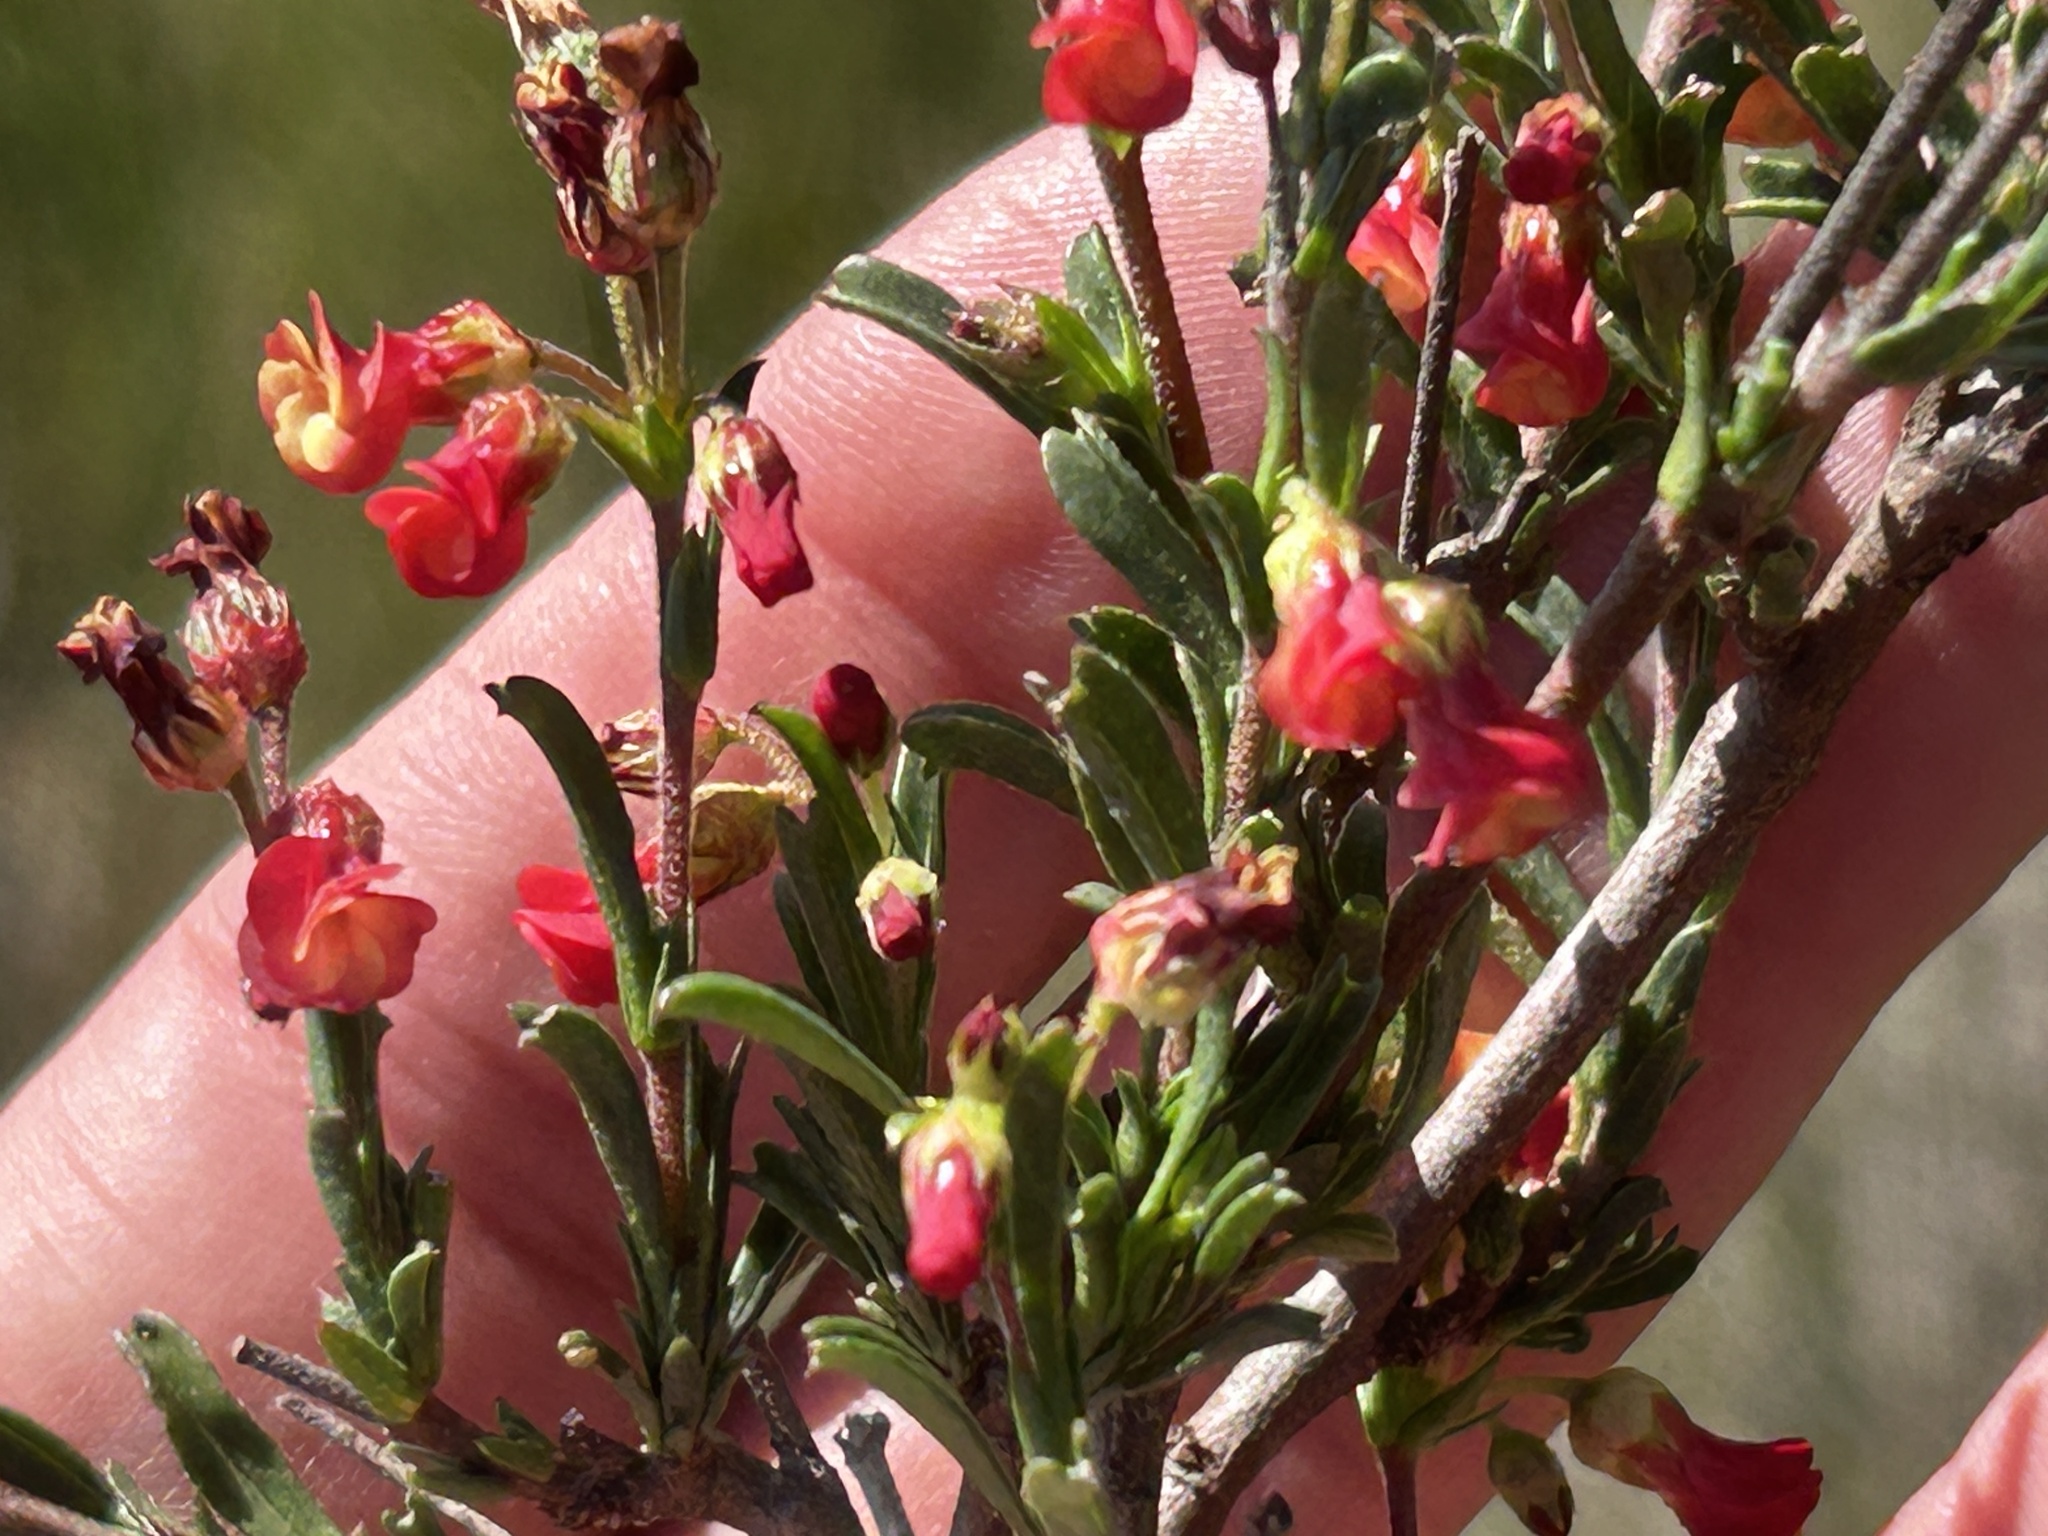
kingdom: Plantae
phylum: Tracheophyta
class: Magnoliopsida
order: Malvales
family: Malvaceae
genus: Hermannia
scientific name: Hermannia flammea
